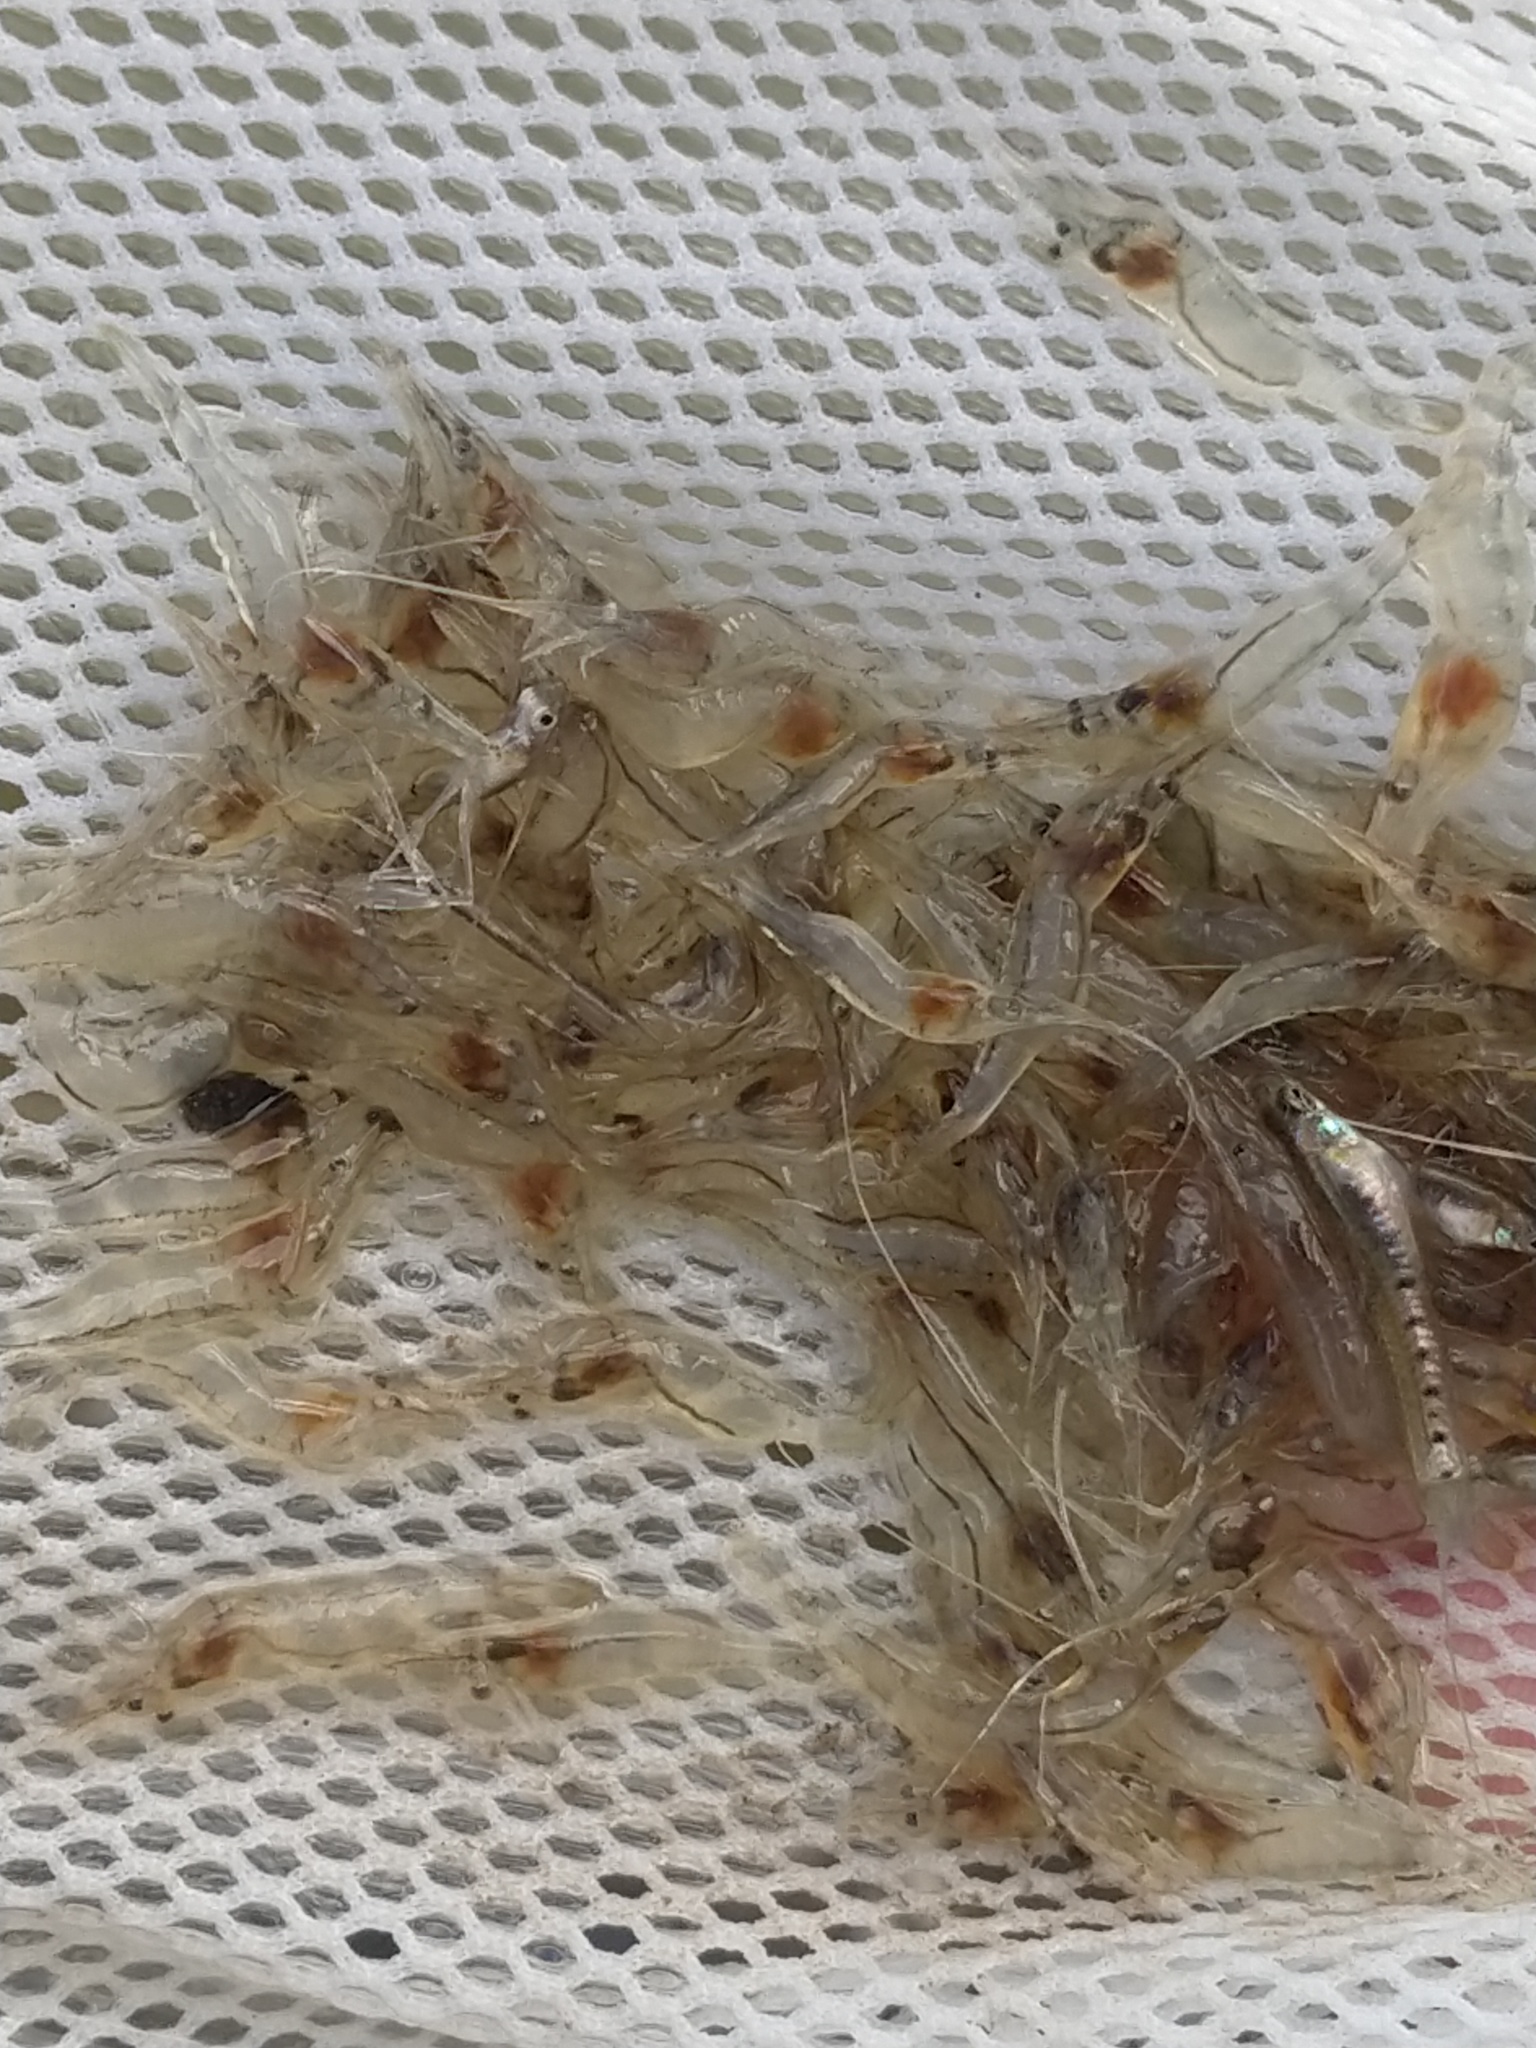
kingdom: Animalia
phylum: Arthropoda
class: Malacostraca
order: Decapoda
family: Palaemonidae
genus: Palaemon
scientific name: Palaemon argentinus
